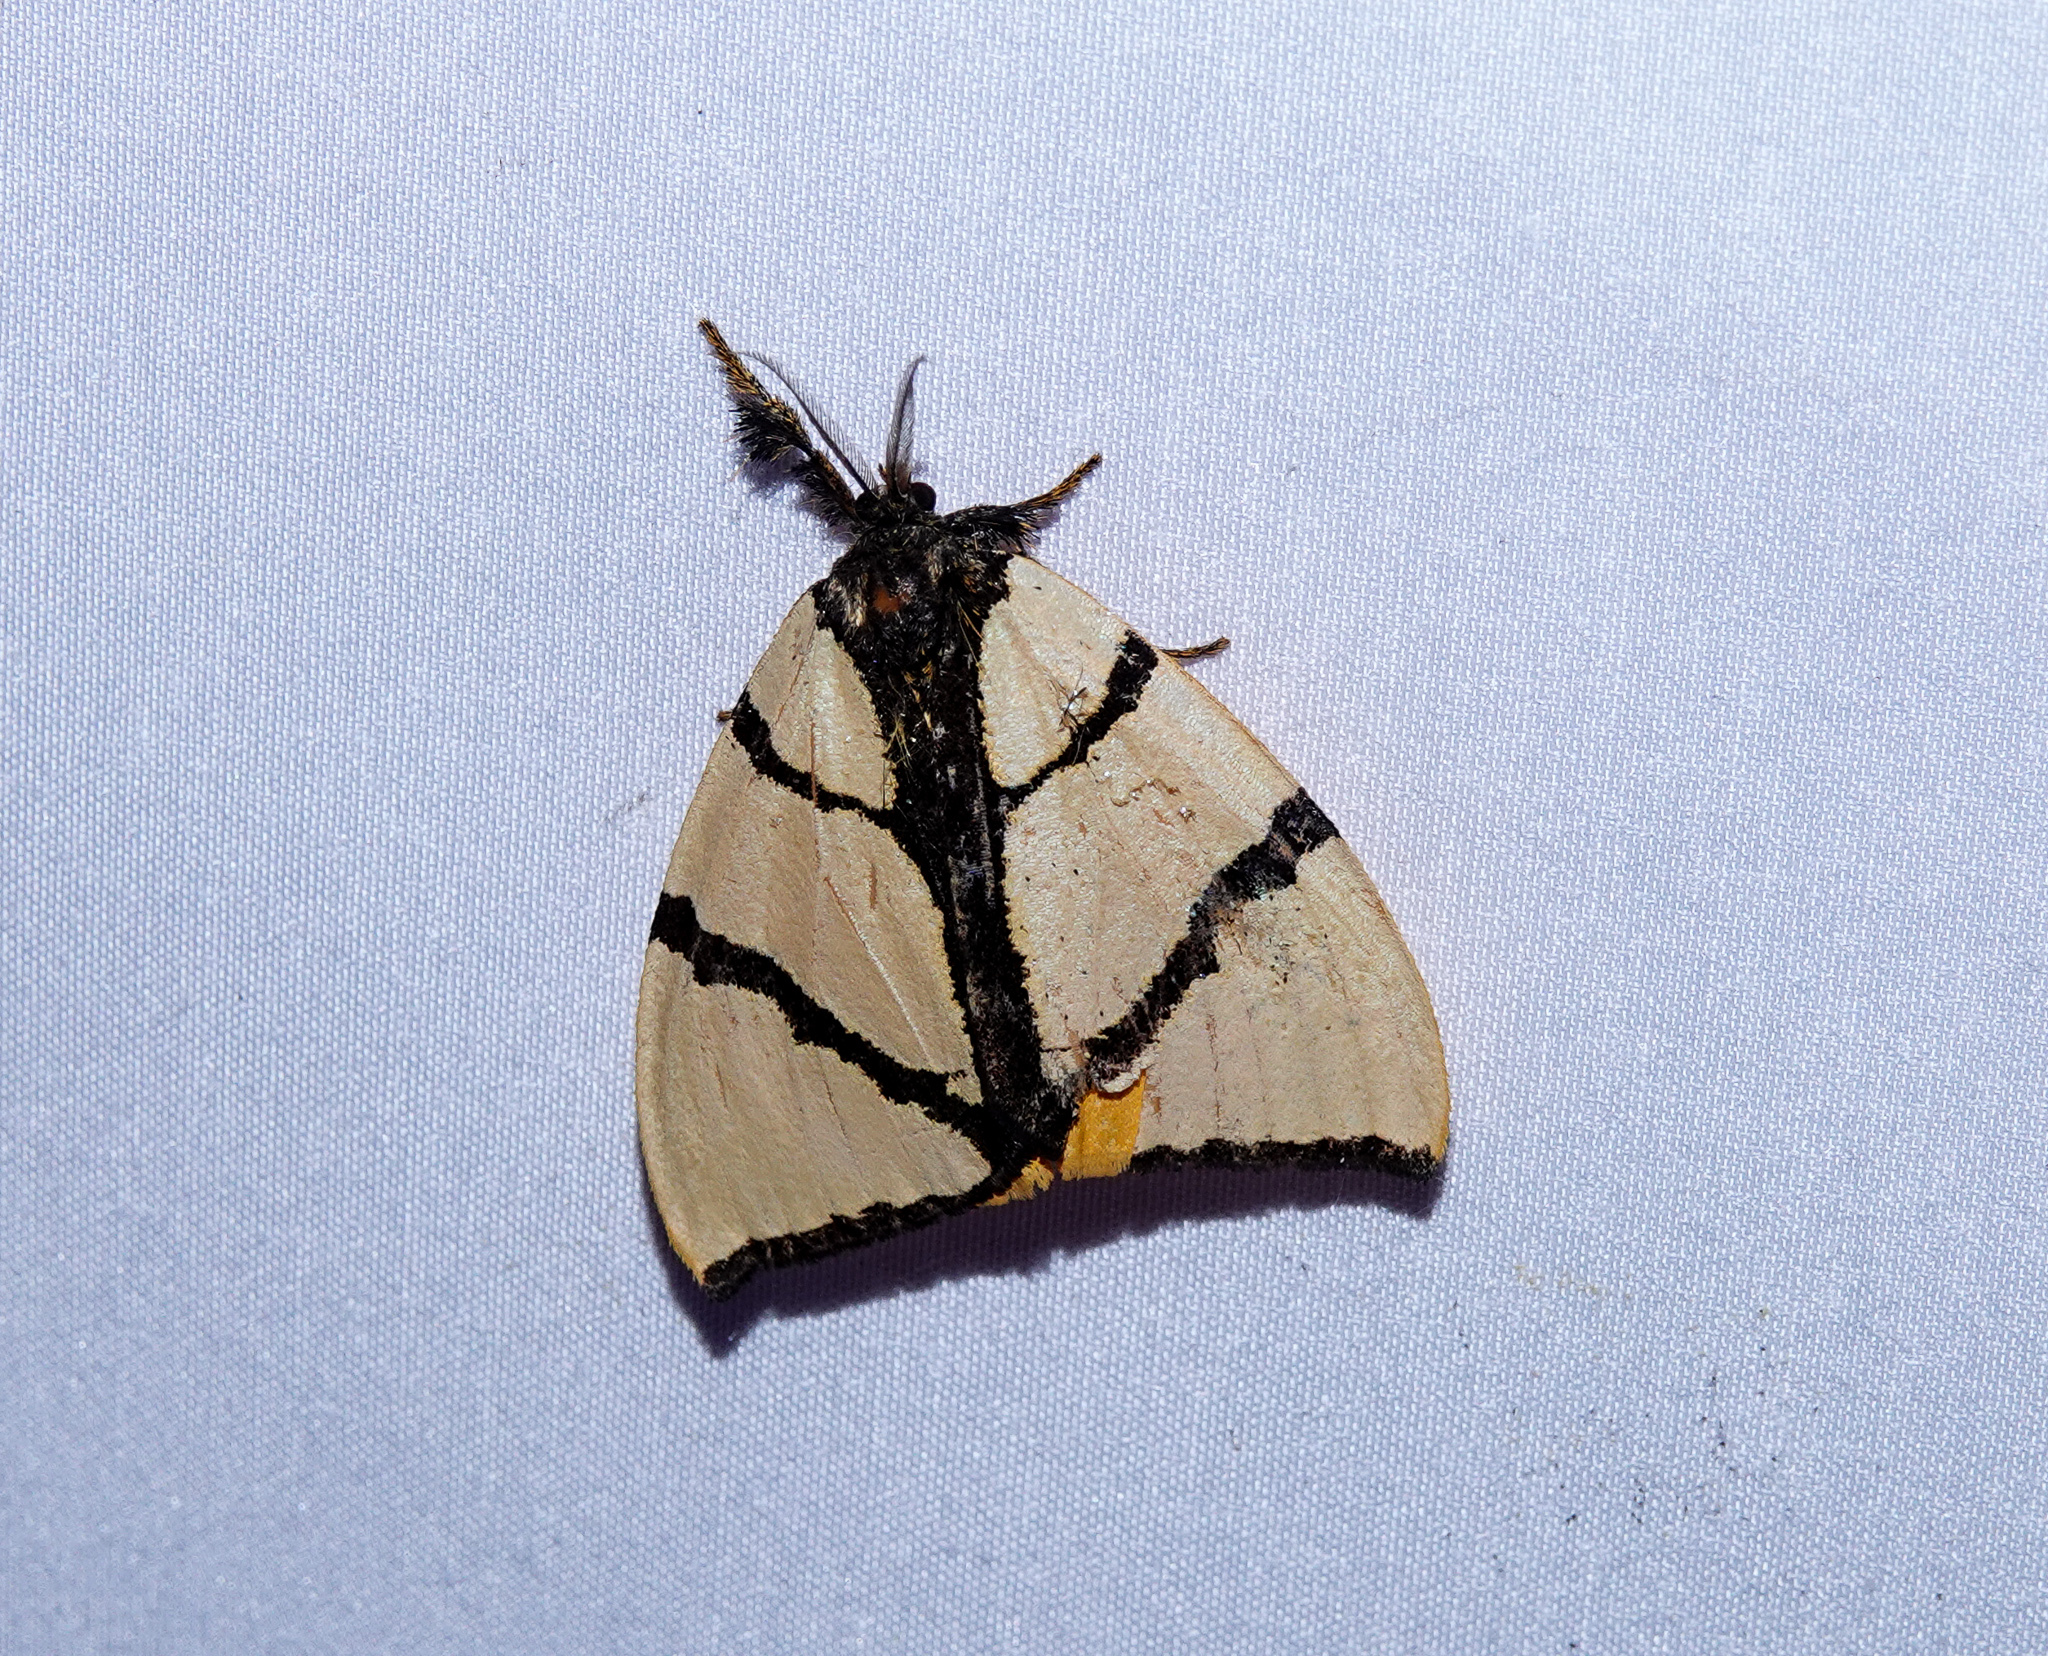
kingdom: Animalia
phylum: Arthropoda
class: Insecta
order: Lepidoptera
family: Erebidae
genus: Numenes
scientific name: Numenes siletti
